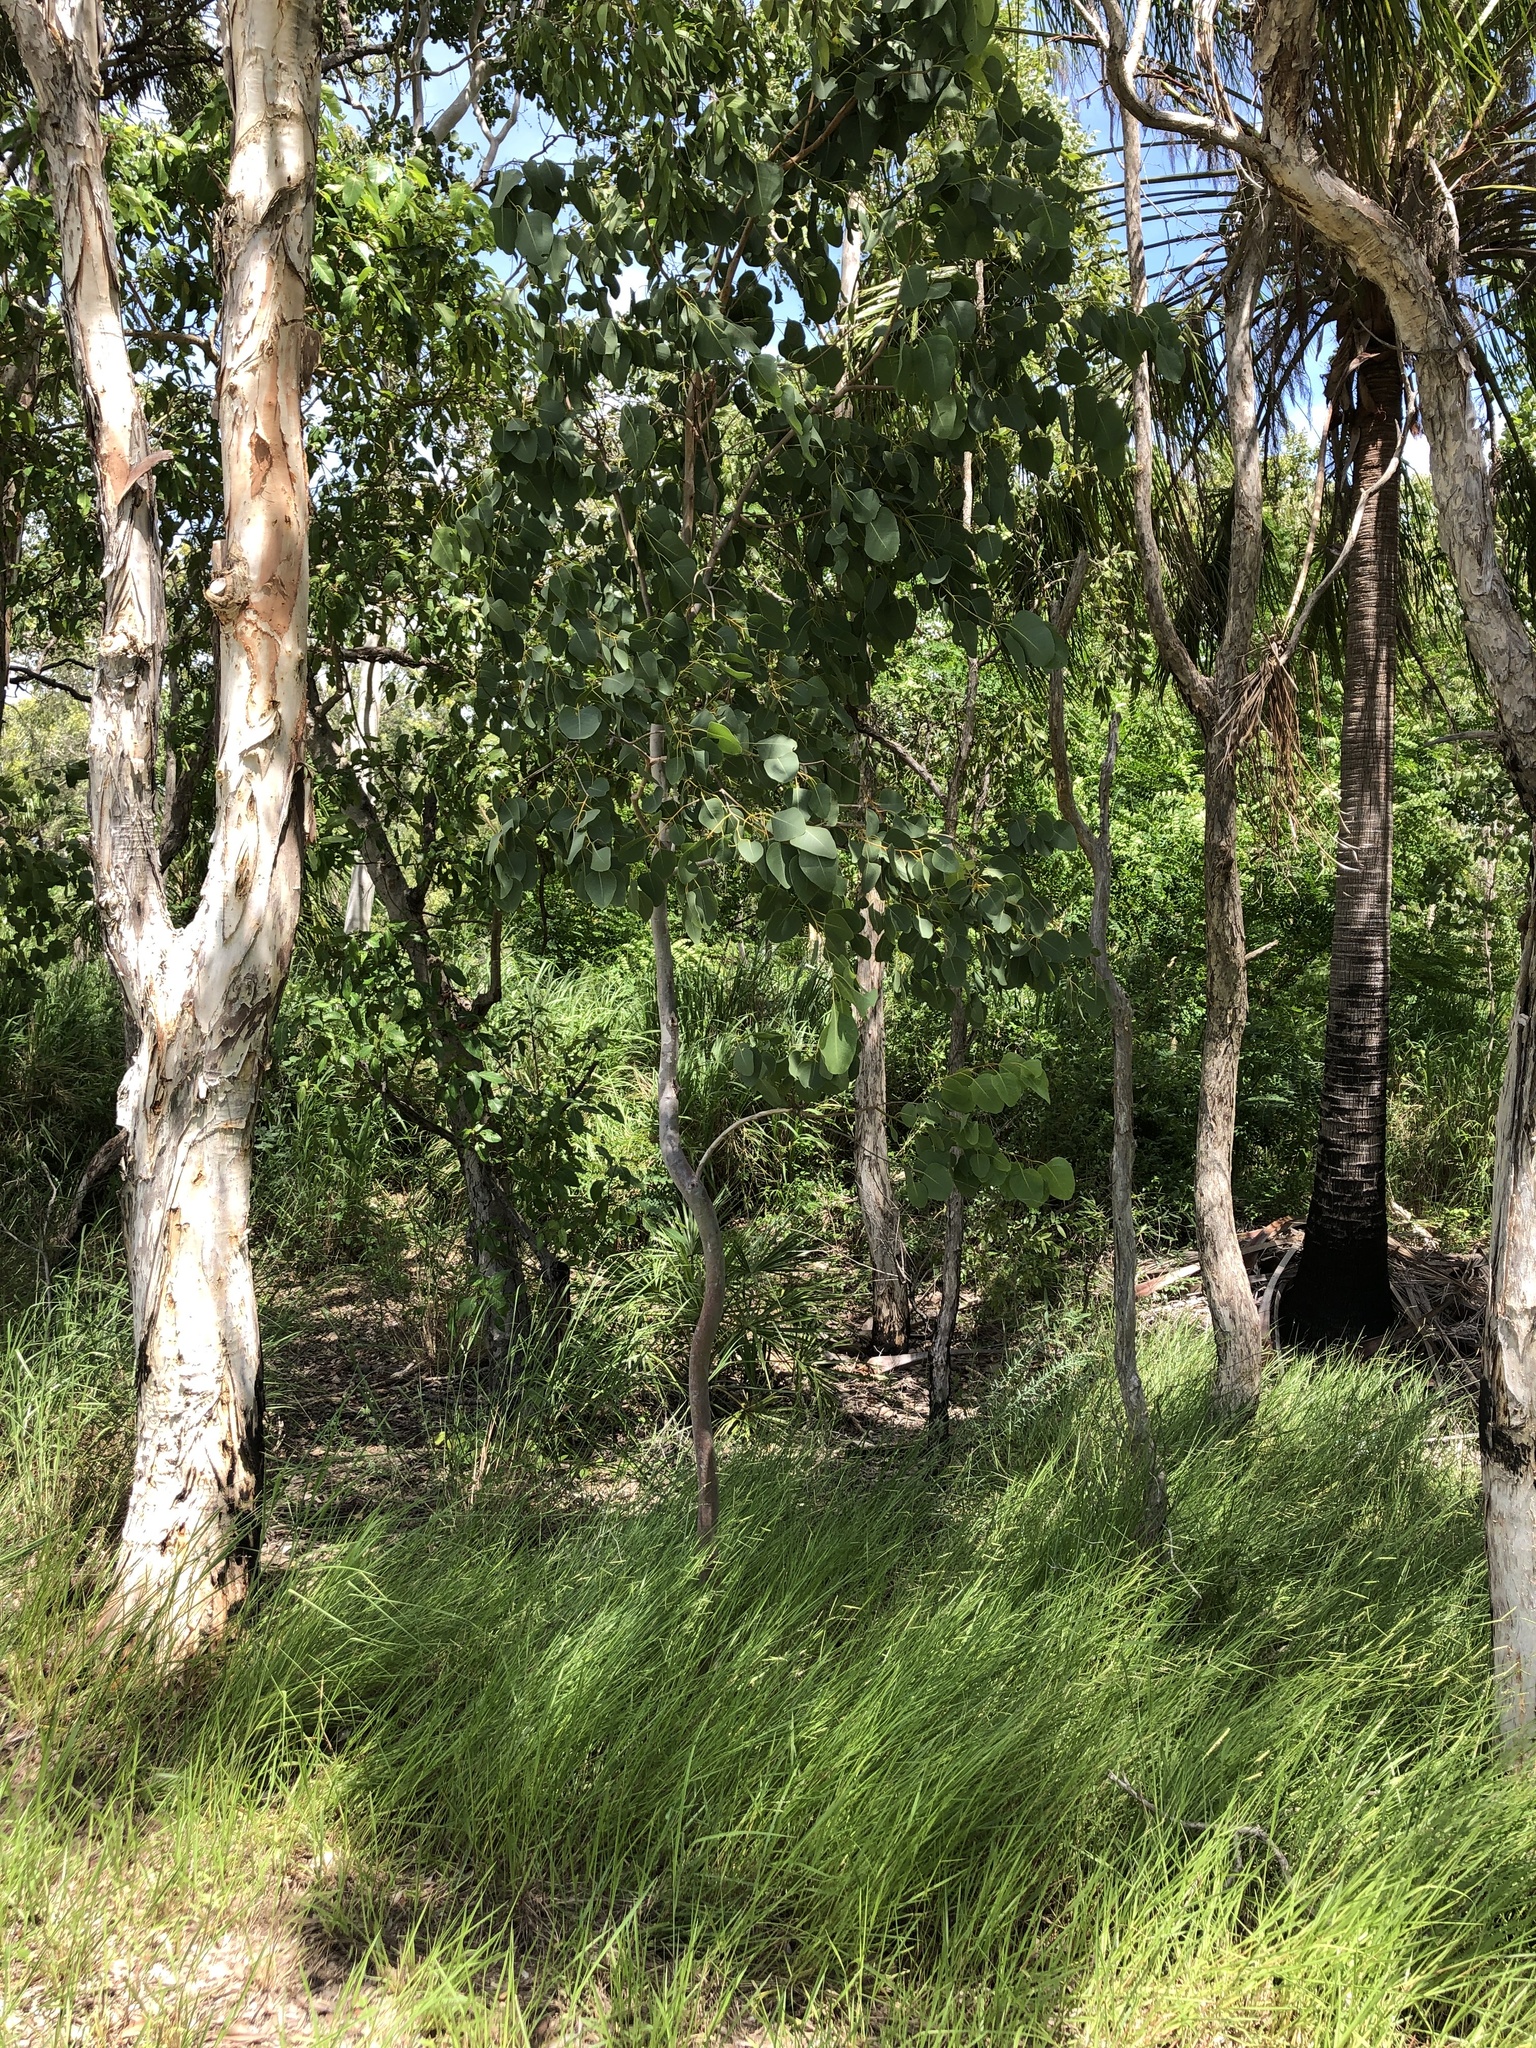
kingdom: Plantae
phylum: Tracheophyta
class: Magnoliopsida
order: Myrtales
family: Myrtaceae
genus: Eucalyptus
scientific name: Eucalyptus platyphylla
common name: Poplar-gum
